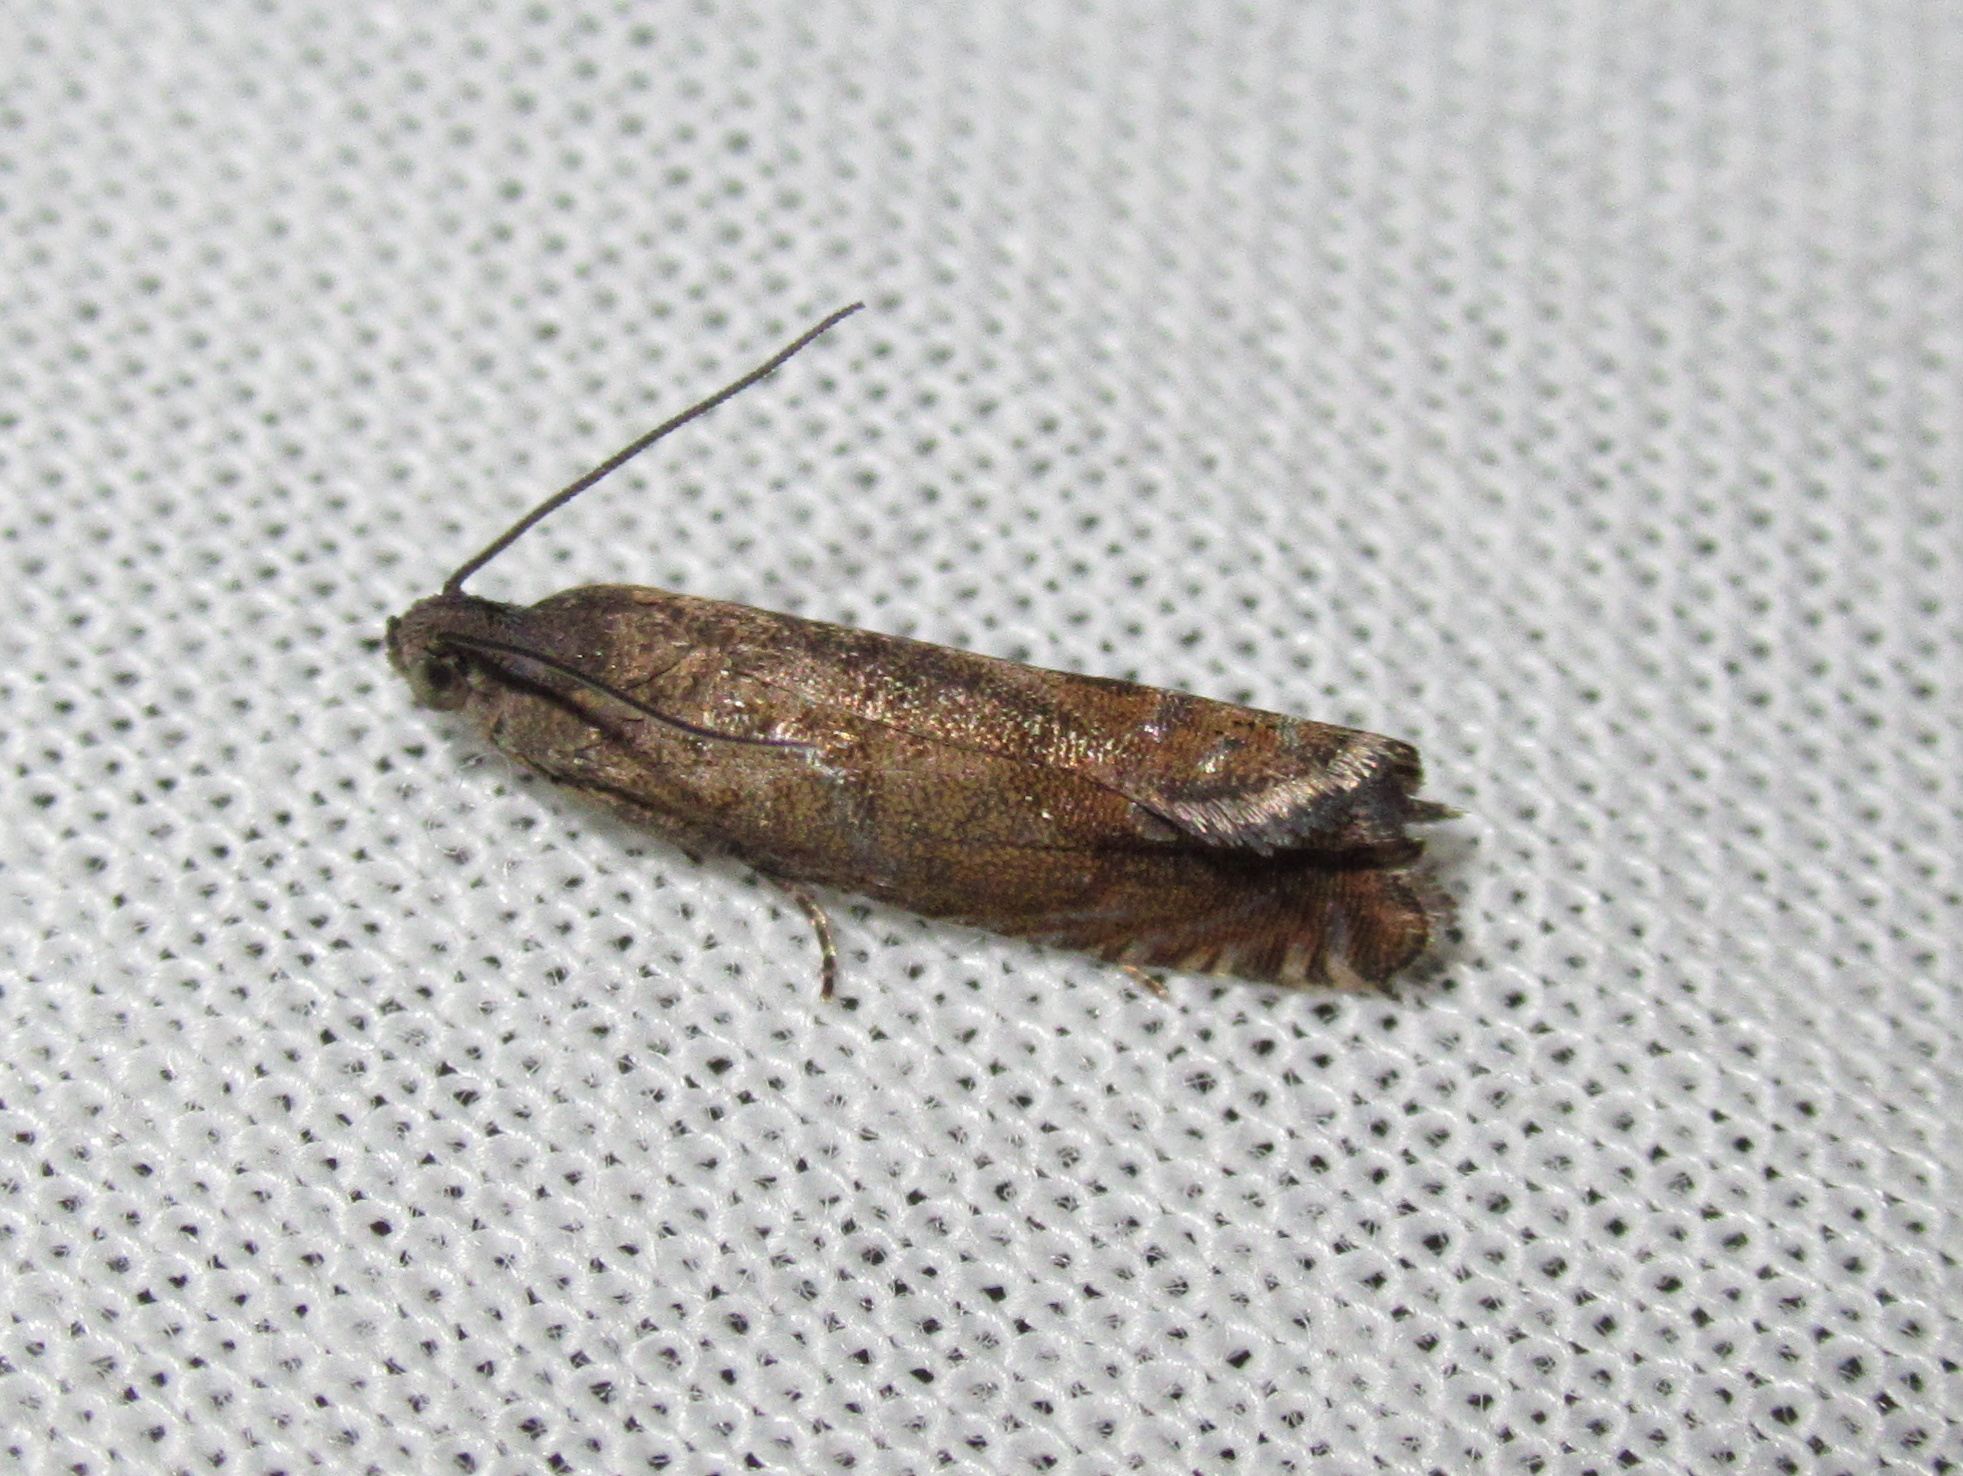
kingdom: Animalia
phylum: Arthropoda
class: Insecta
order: Lepidoptera
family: Tortricidae
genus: Cydia
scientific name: Cydia succedana
